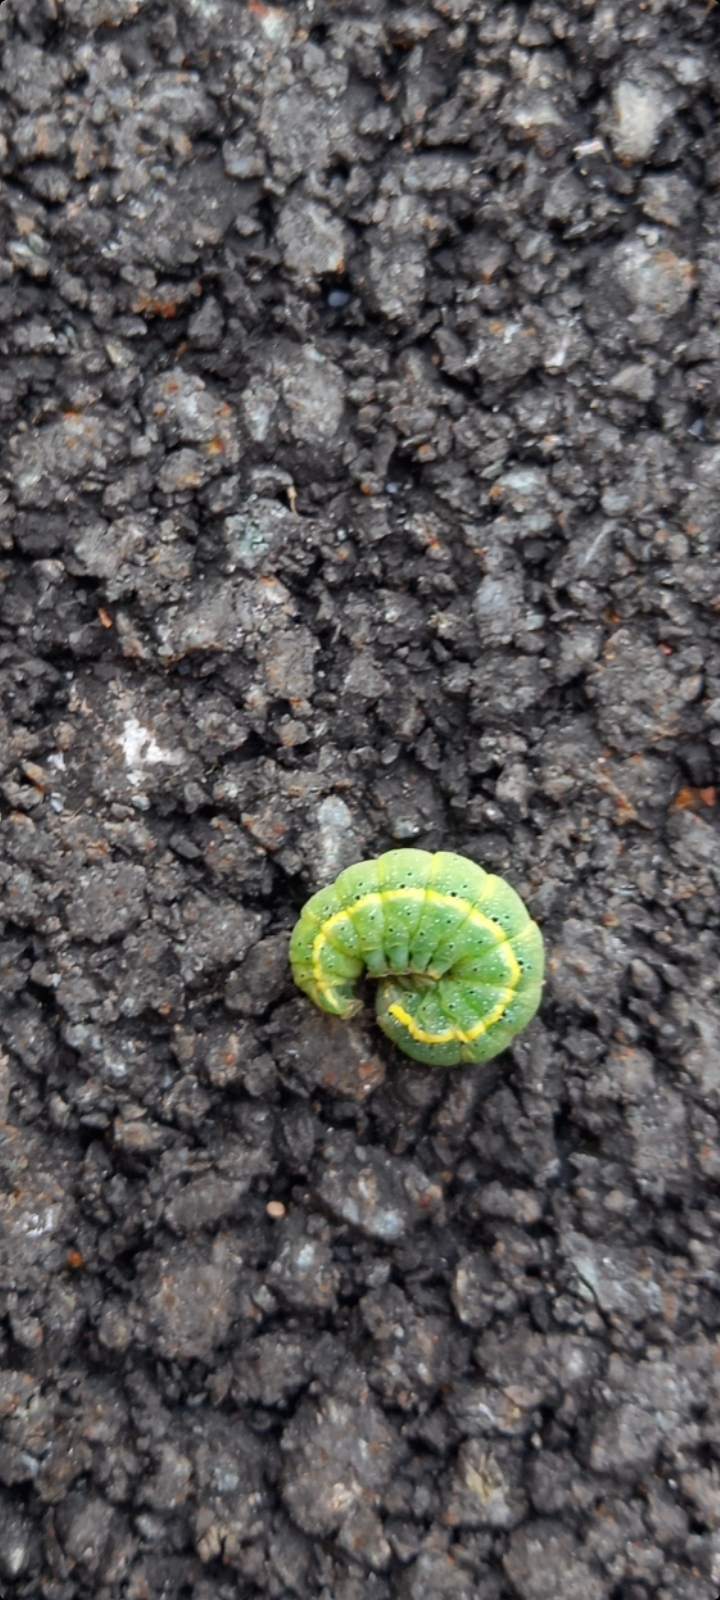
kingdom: Animalia
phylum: Arthropoda
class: Insecta
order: Lepidoptera
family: Noctuidae
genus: Lacanobia
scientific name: Lacanobia oleracea
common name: Bright-line brown-eye
